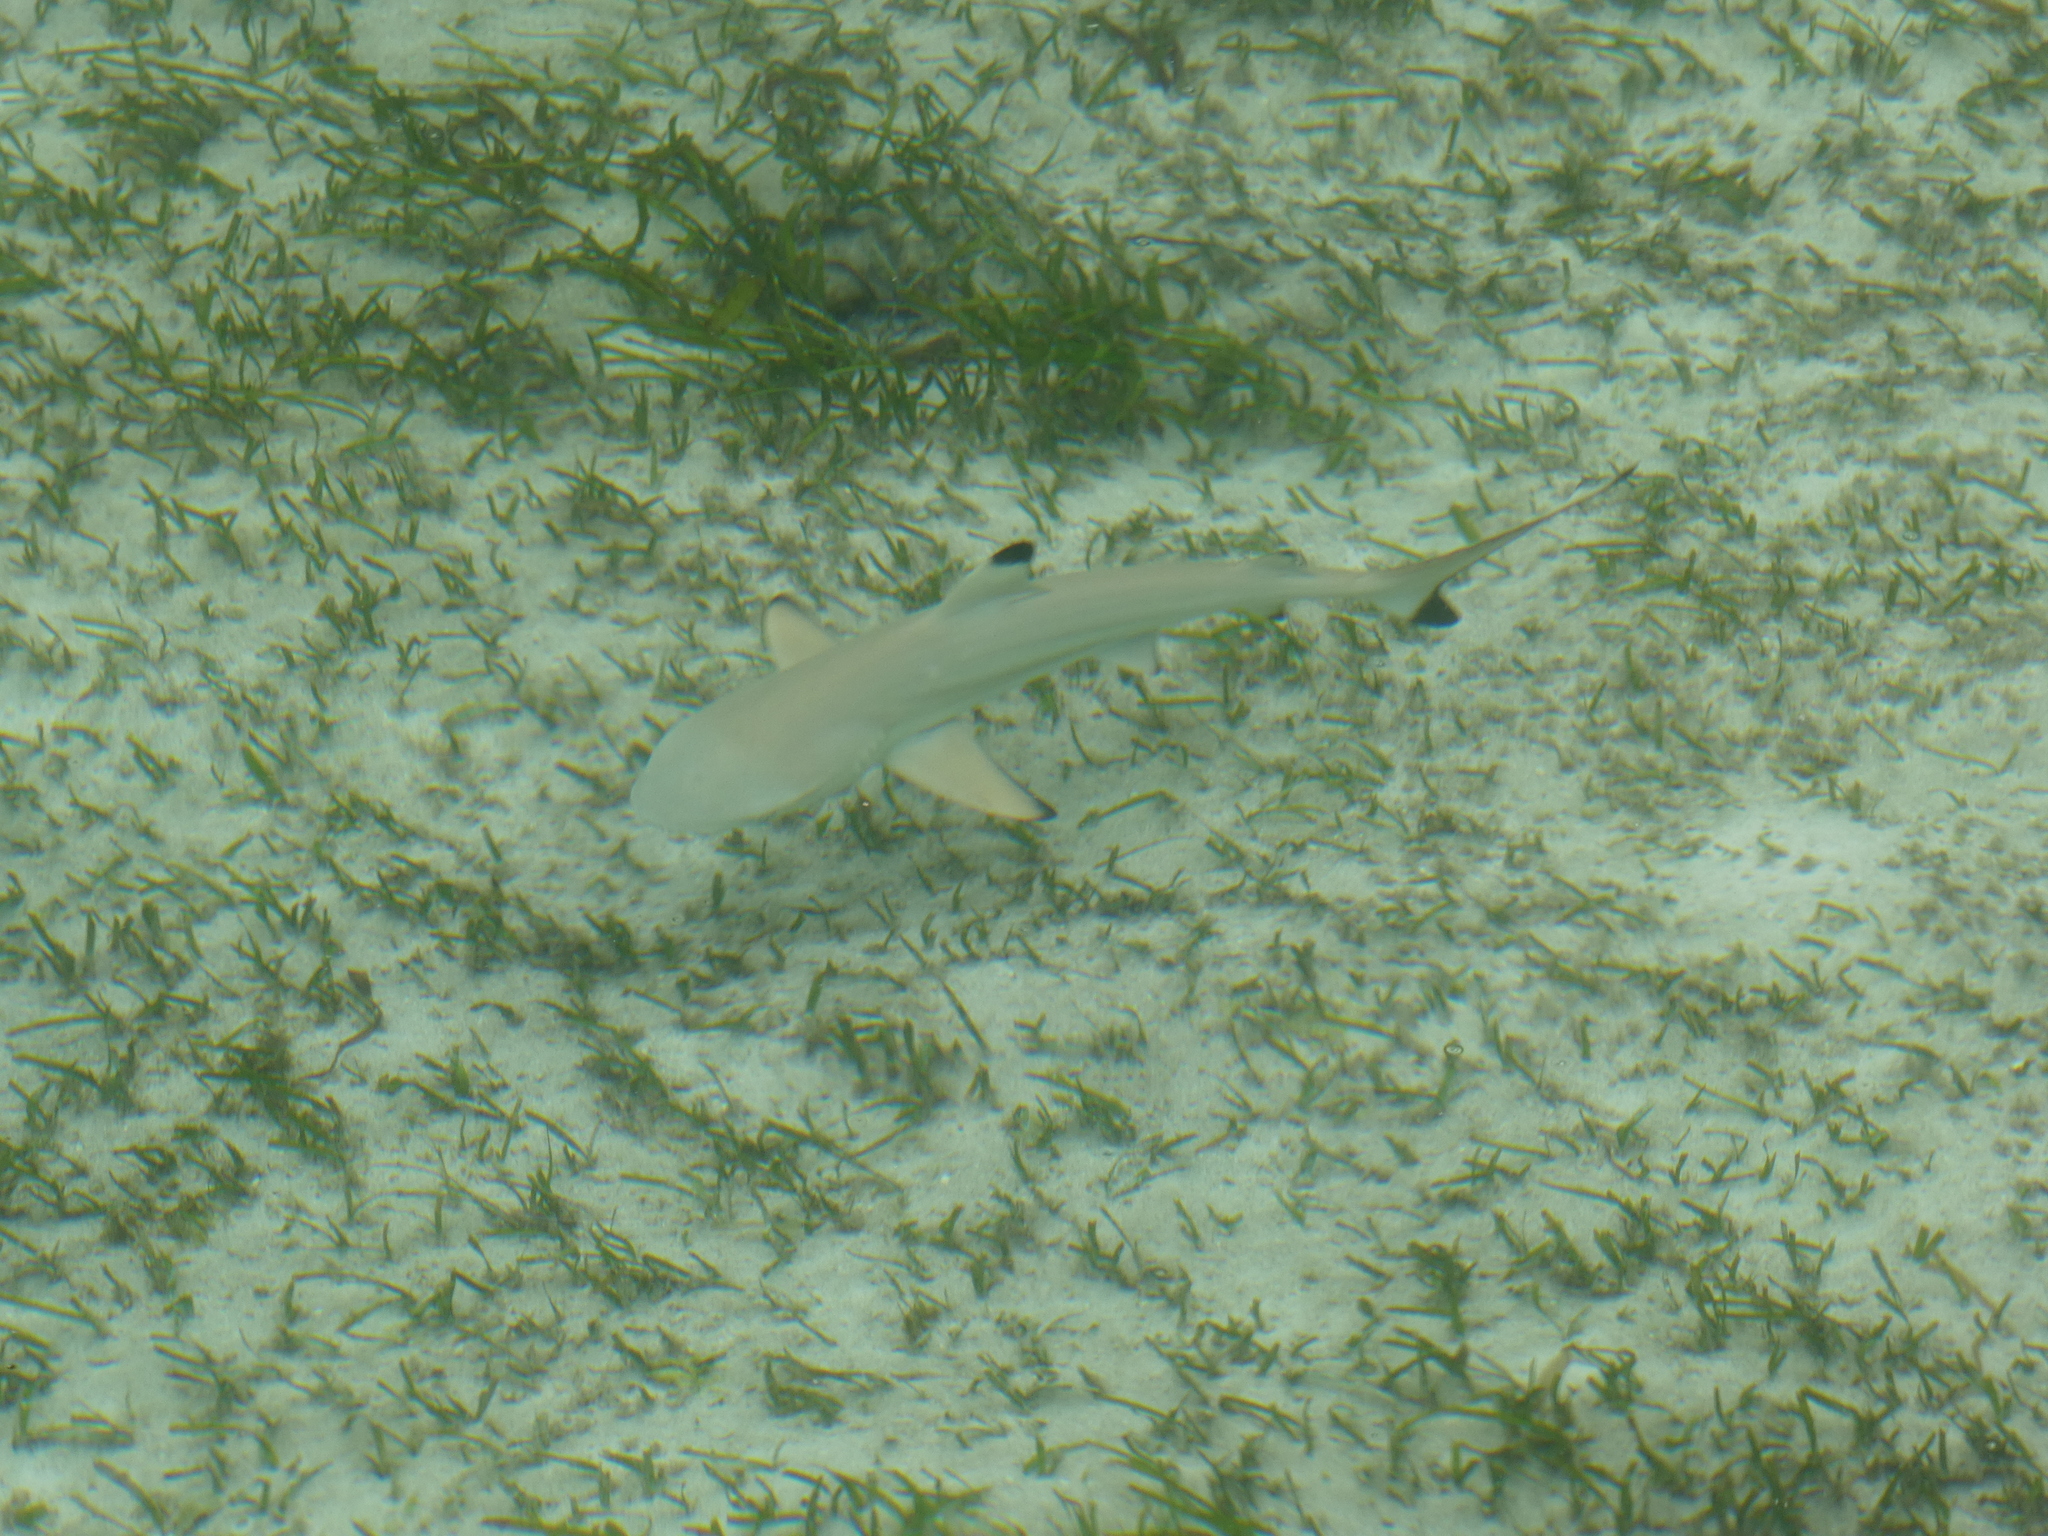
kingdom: Animalia
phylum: Chordata
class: Elasmobranchii
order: Carcharhiniformes
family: Carcharhinidae
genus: Carcharhinus
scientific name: Carcharhinus melanopterus
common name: Blacktip reef shark
